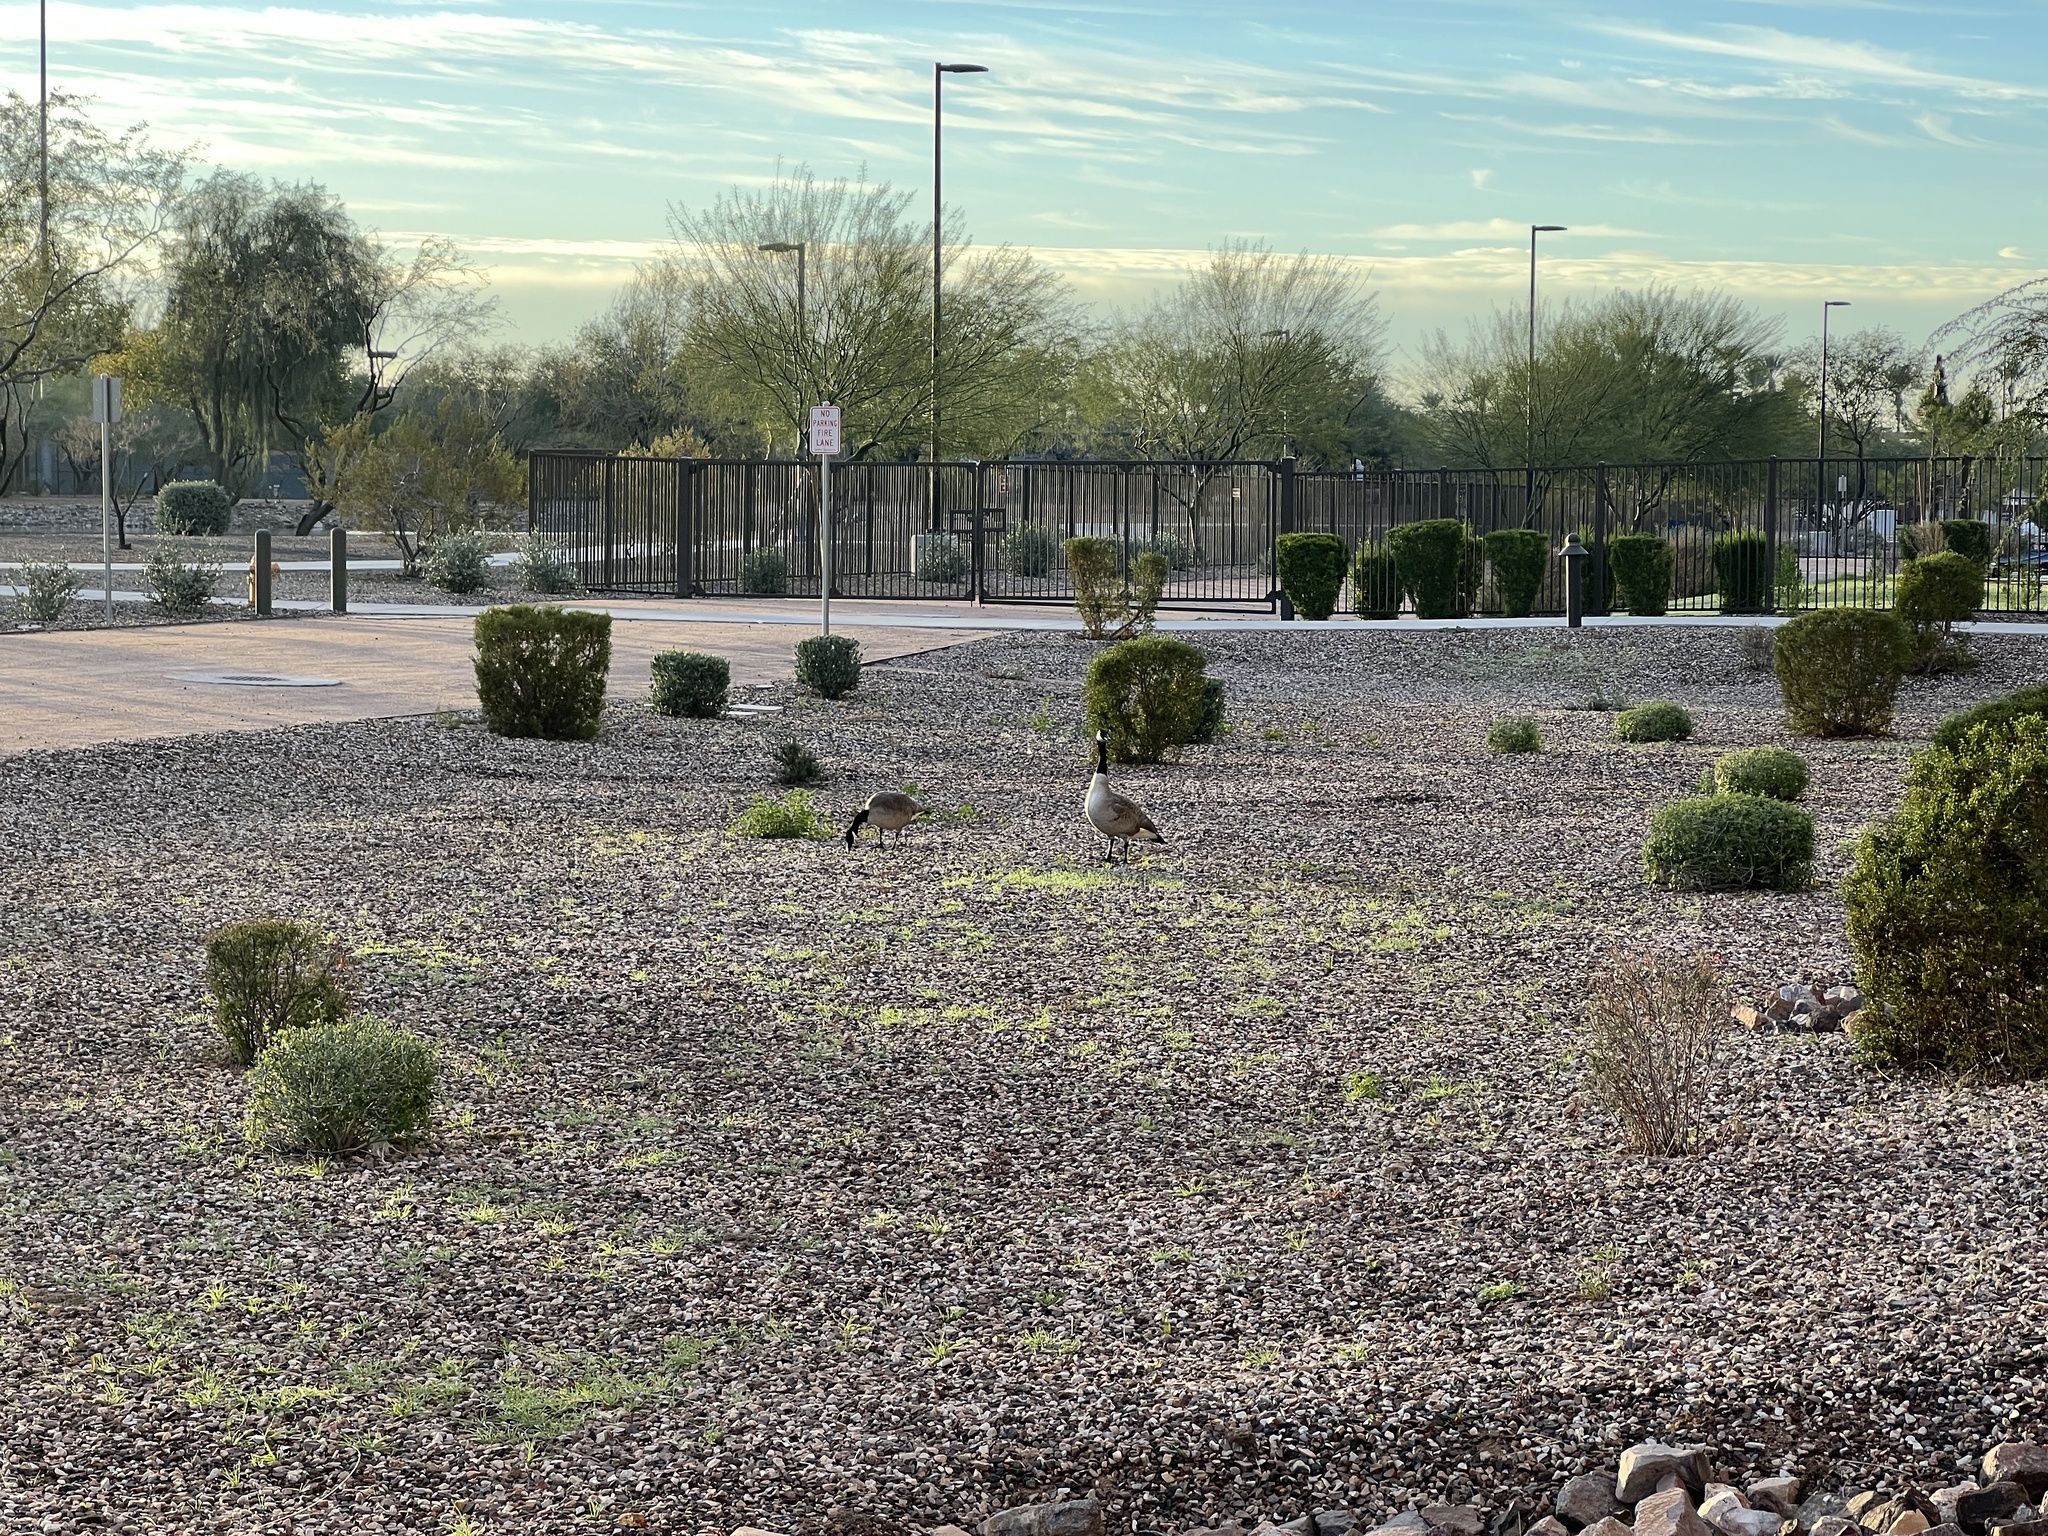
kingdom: Animalia
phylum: Chordata
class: Aves
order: Anseriformes
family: Anatidae
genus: Branta
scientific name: Branta canadensis
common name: Canada goose
